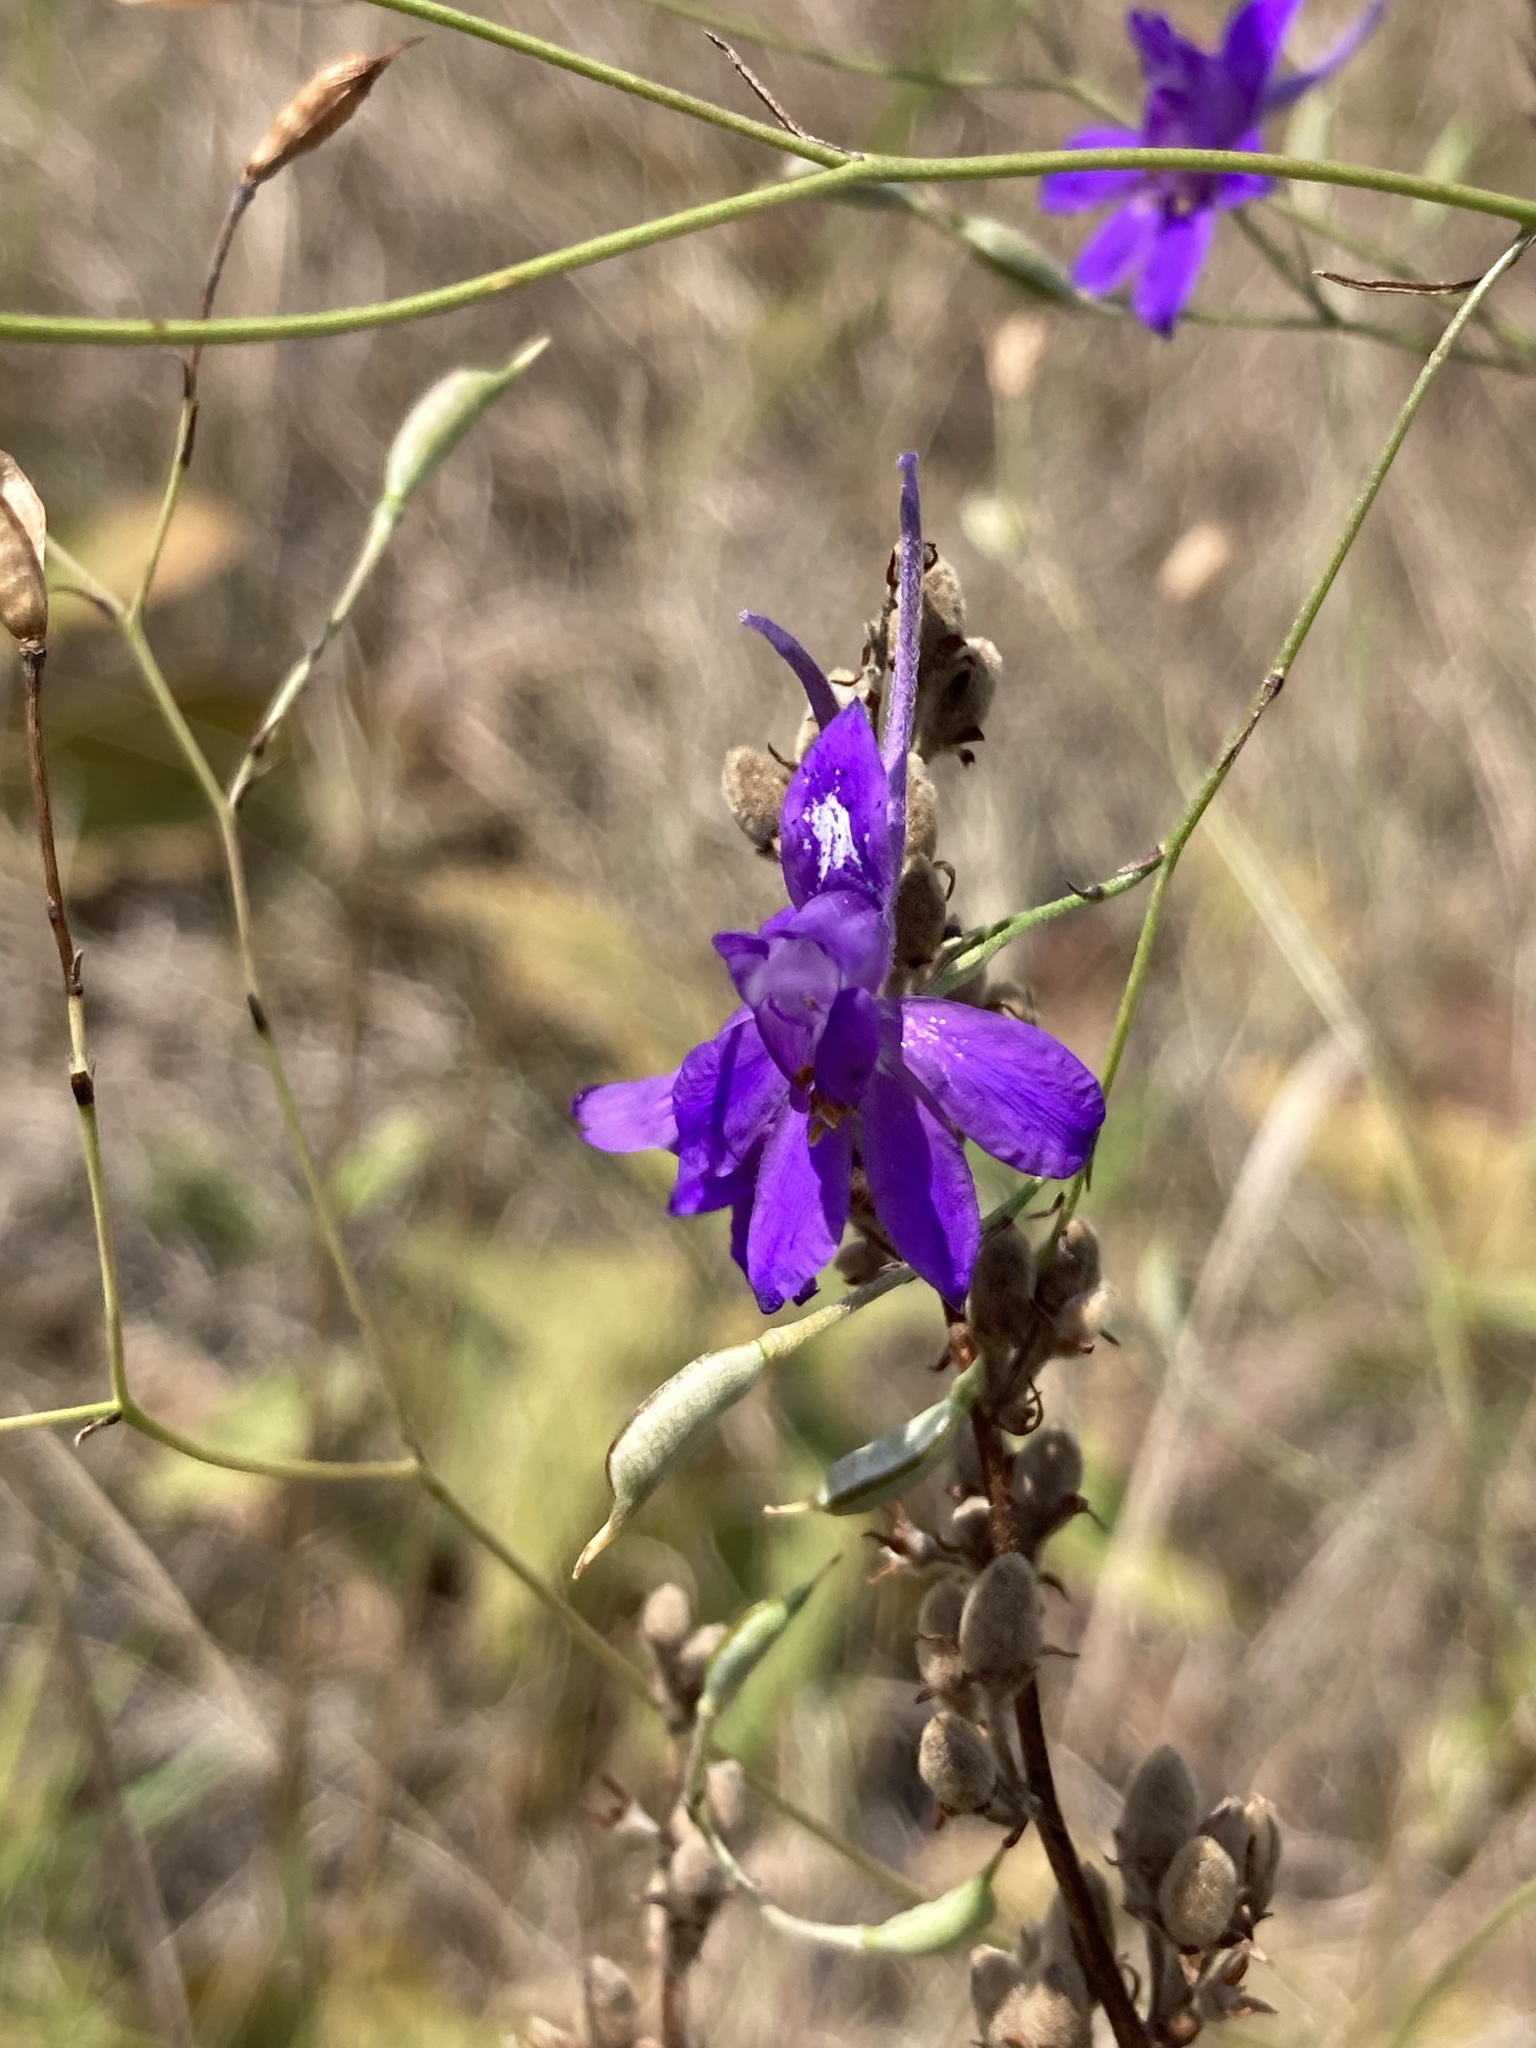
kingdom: Plantae
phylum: Tracheophyta
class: Magnoliopsida
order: Ranunculales
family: Ranunculaceae
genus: Delphinium
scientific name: Delphinium consolida
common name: Branching larkspur
